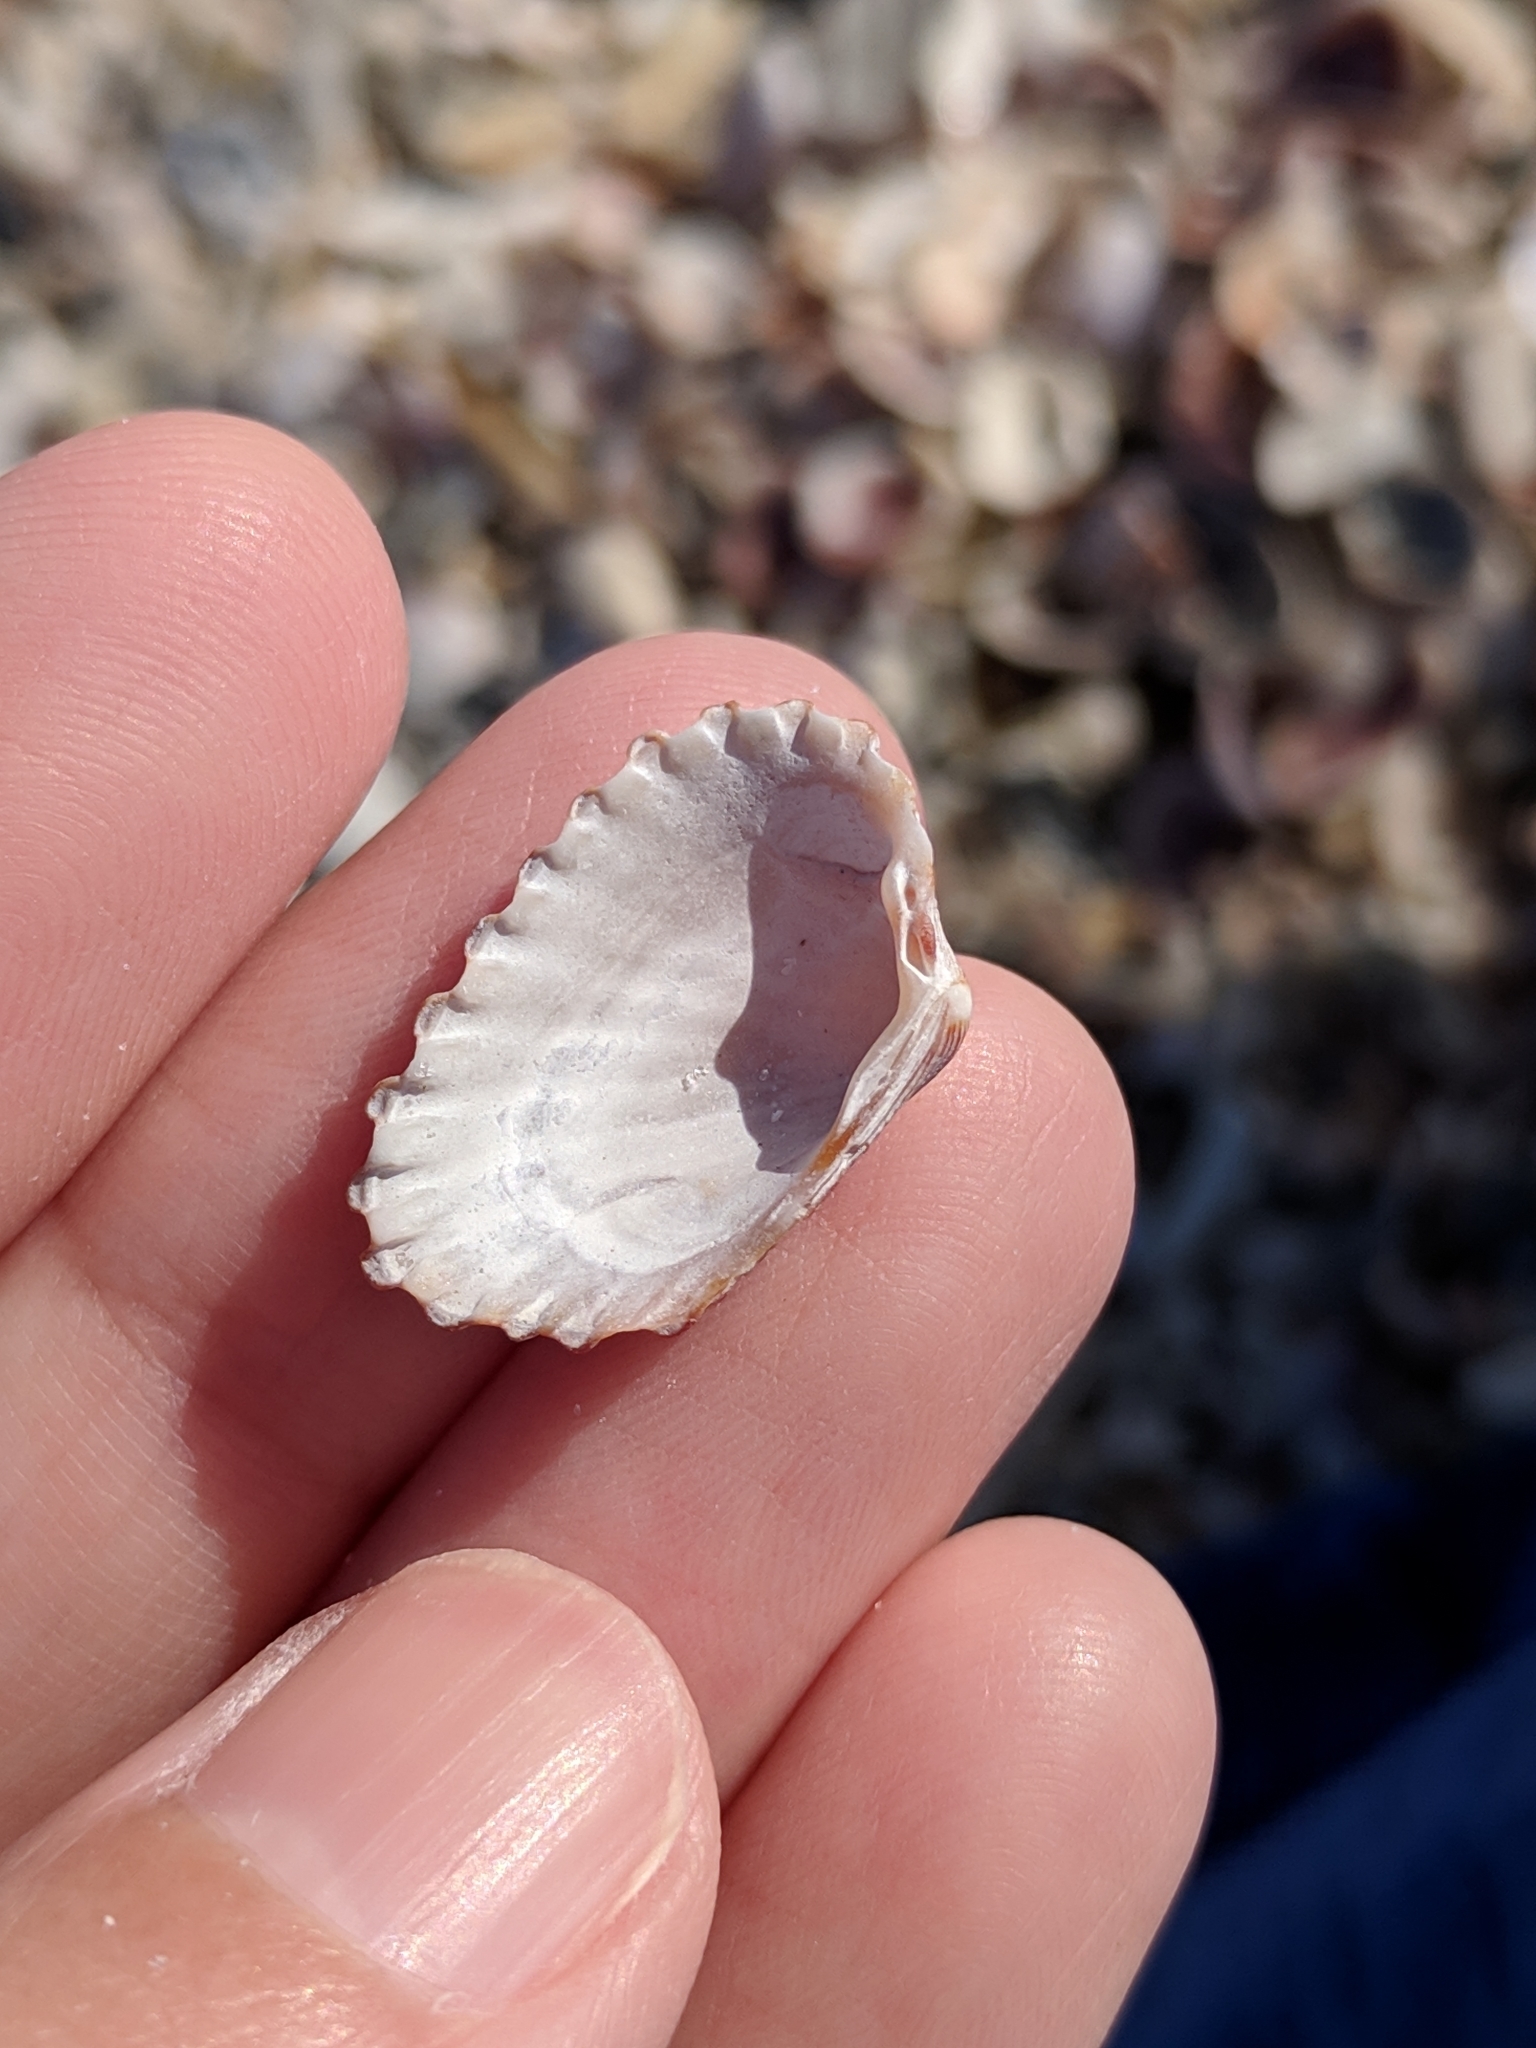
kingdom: Animalia
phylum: Mollusca
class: Bivalvia
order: Carditida
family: Carditidae
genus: Cardites
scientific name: Cardites floridanus
